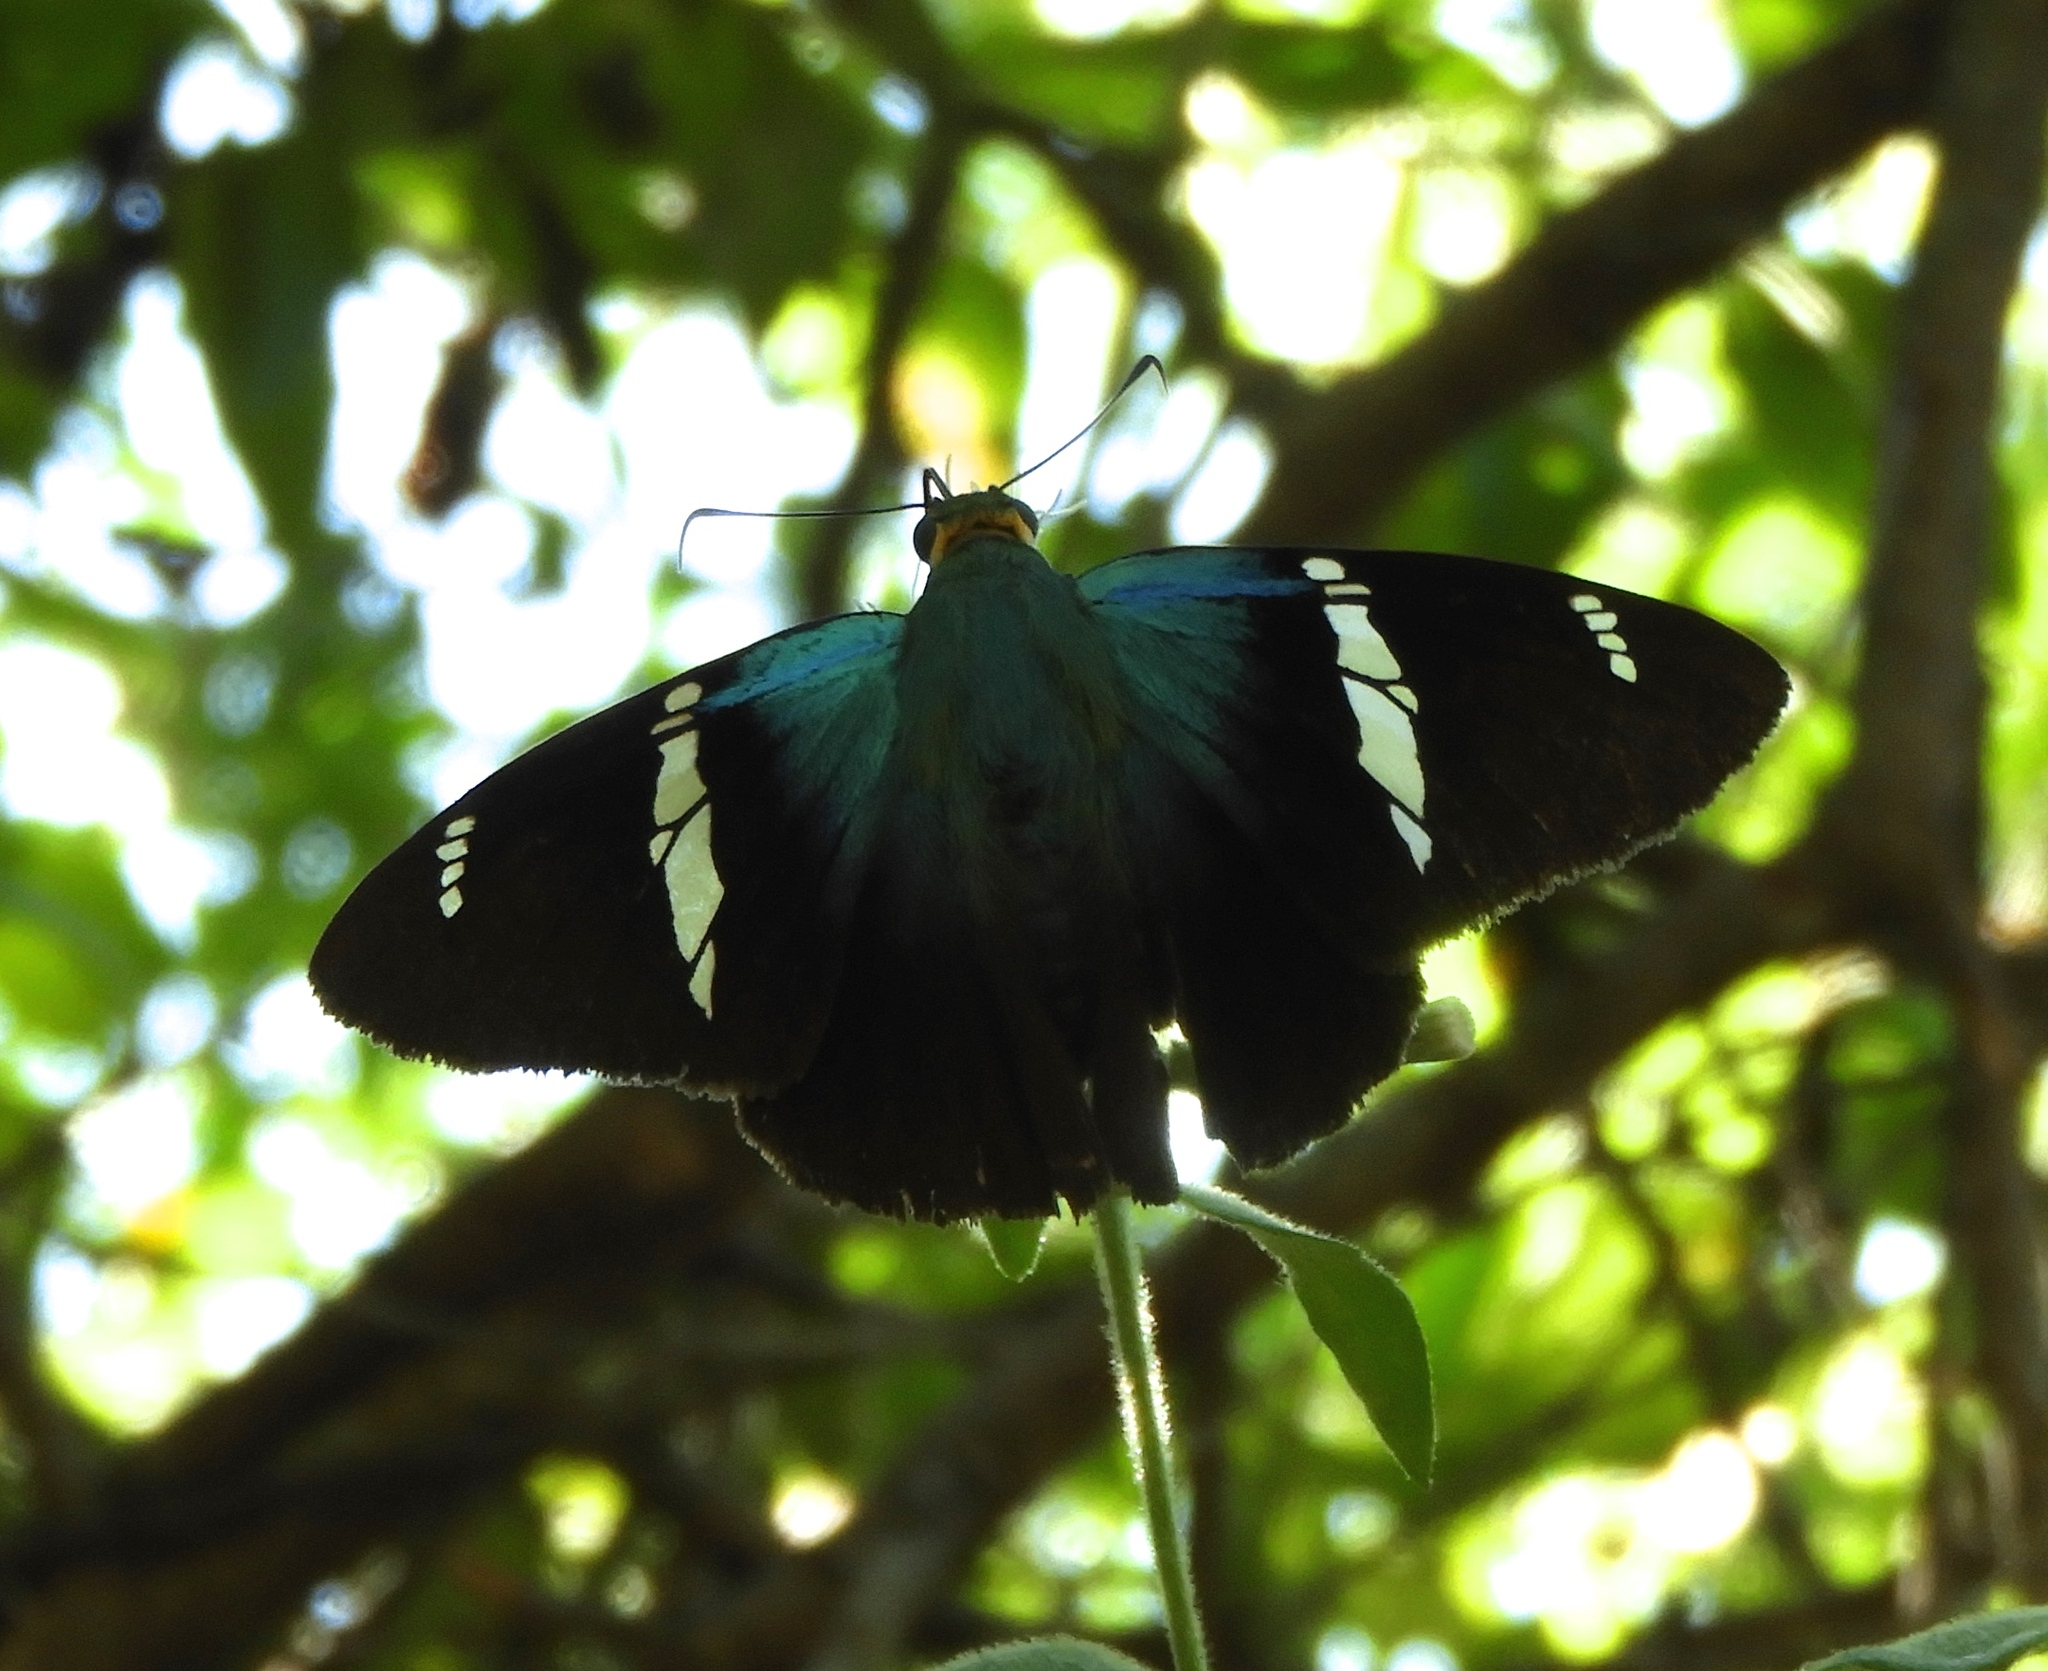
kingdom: Animalia
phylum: Arthropoda
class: Insecta
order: Lepidoptera
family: Hesperiidae
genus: Astraptes
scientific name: Astraptes fulgerator
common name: Two-barred flasher
